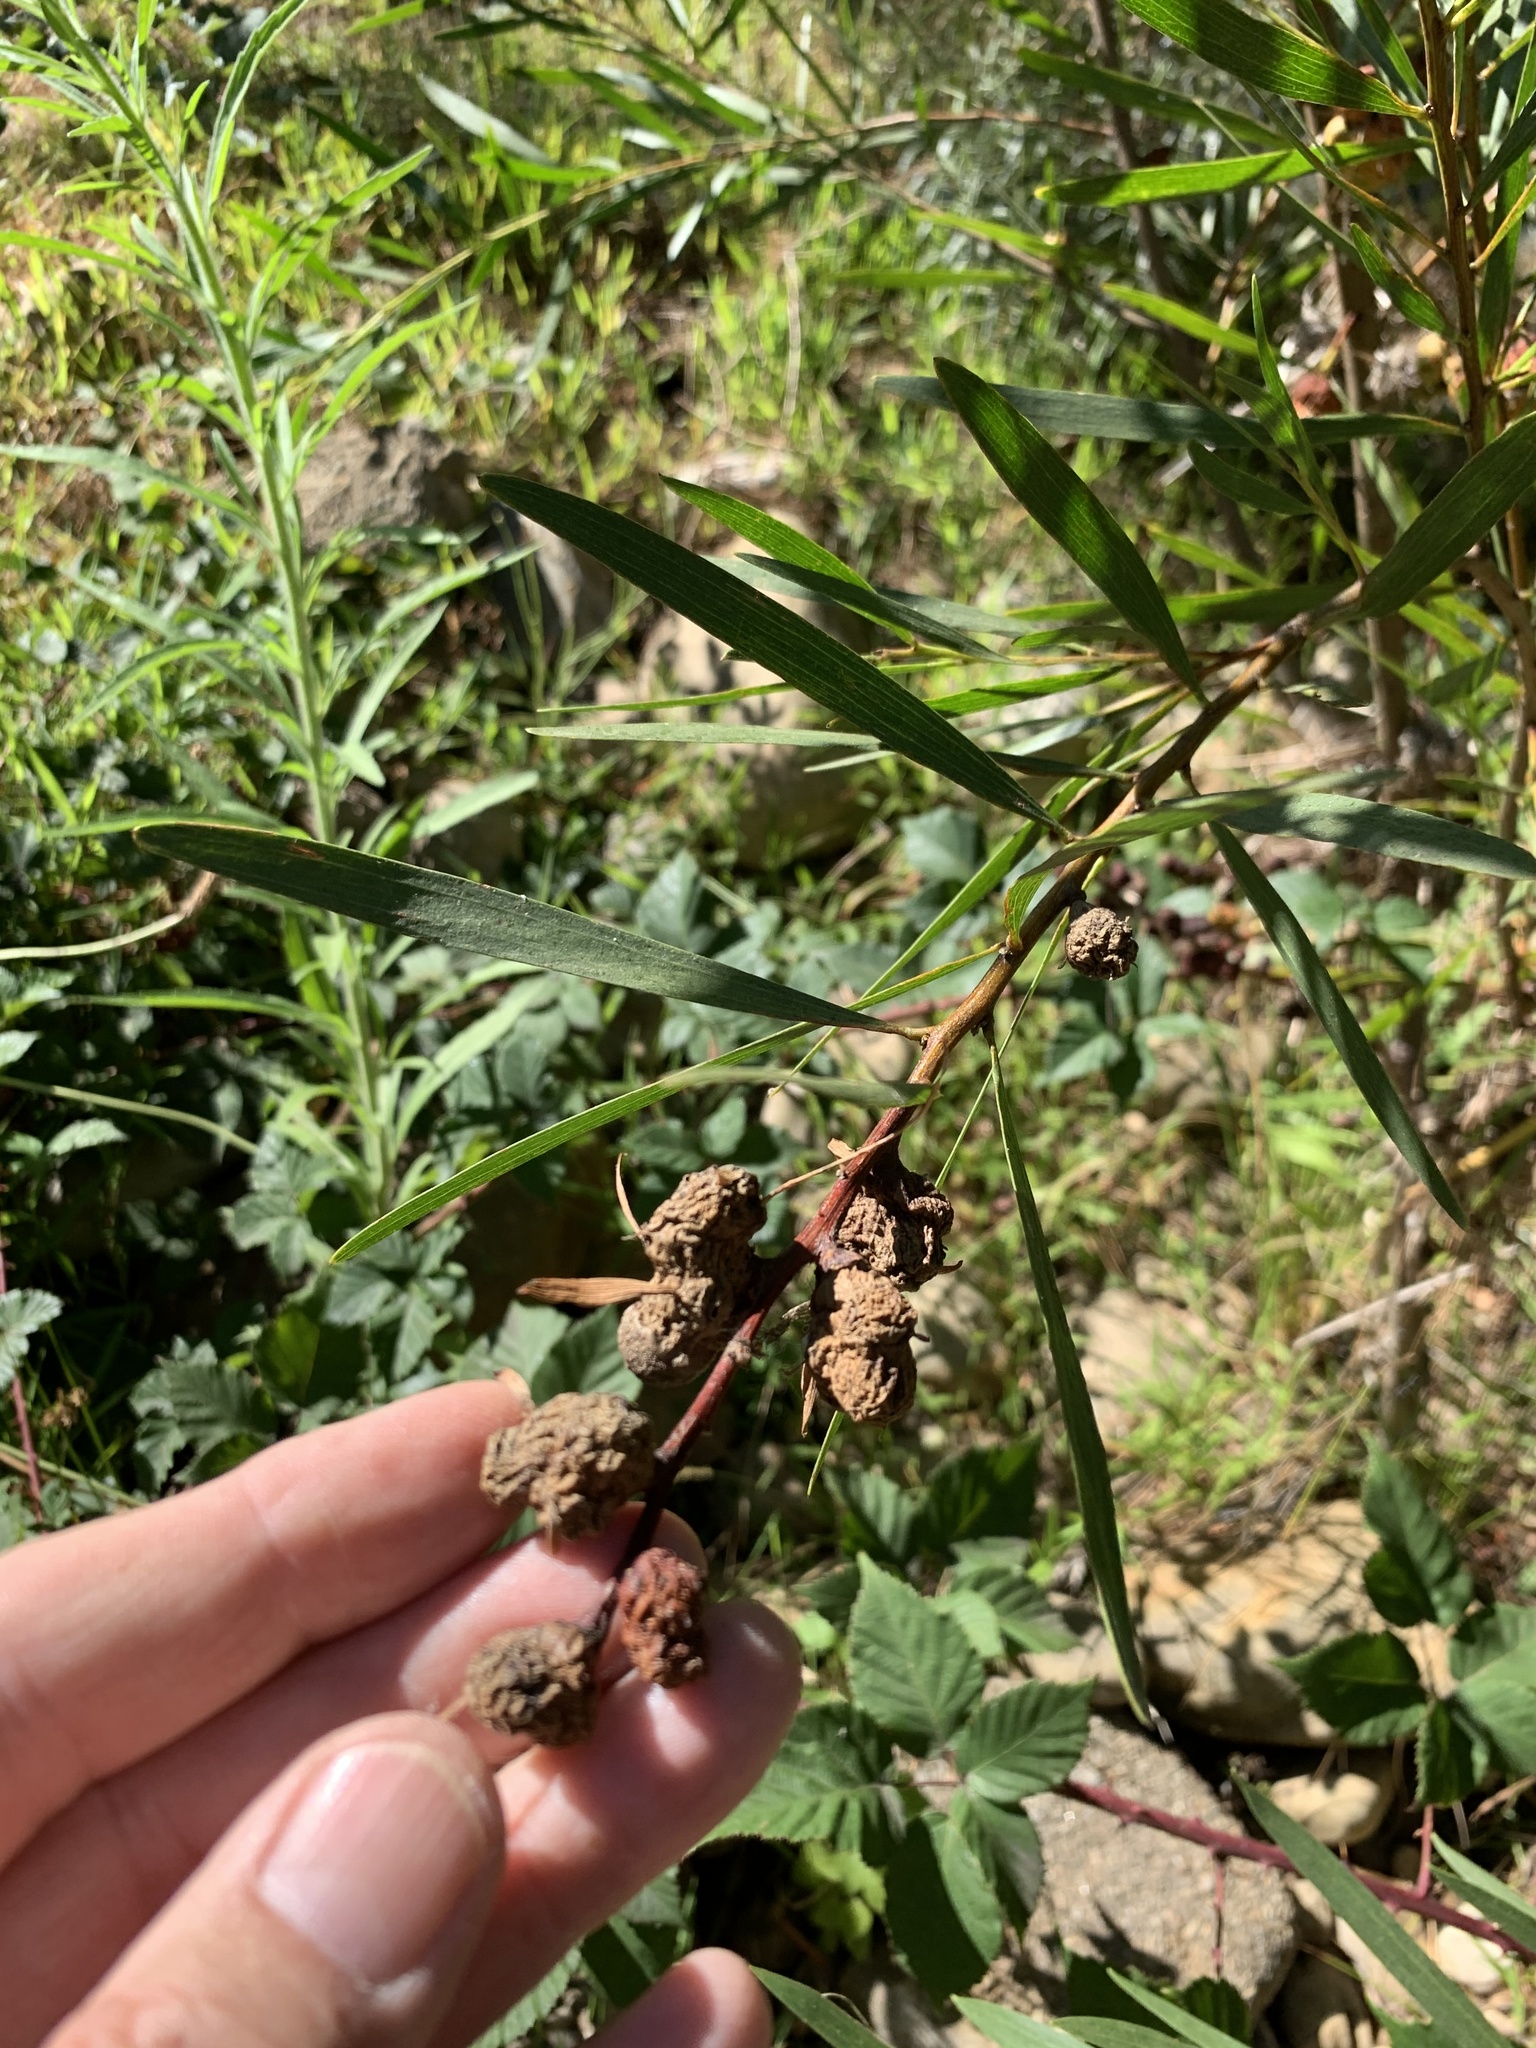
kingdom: Plantae
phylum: Tracheophyta
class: Magnoliopsida
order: Fabales
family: Fabaceae
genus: Acacia
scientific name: Acacia longifolia
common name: Sydney golden wattle
